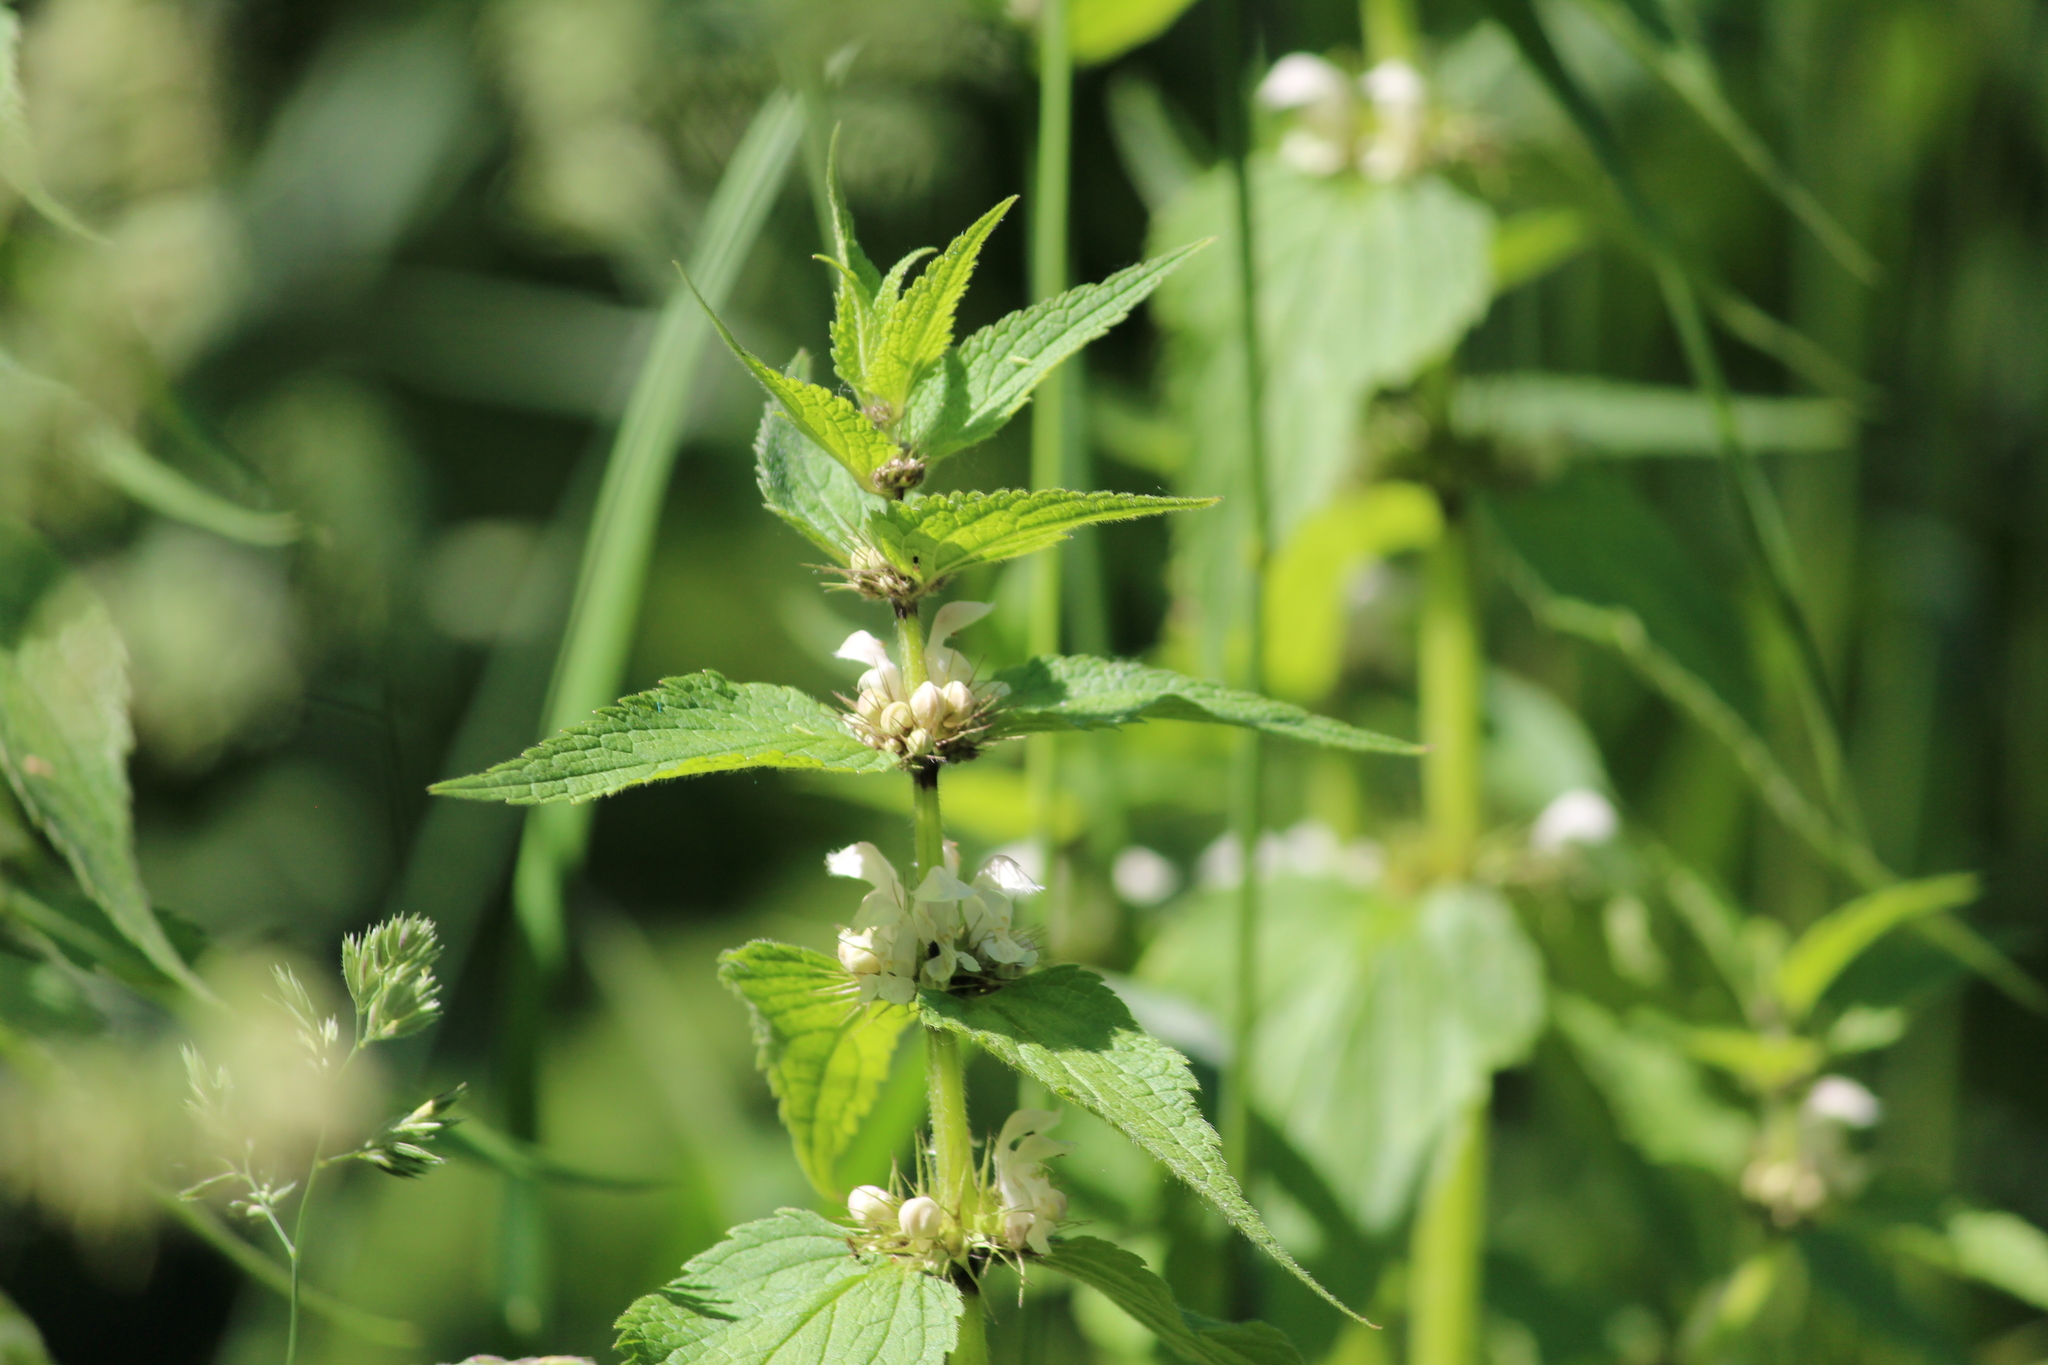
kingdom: Plantae
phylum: Tracheophyta
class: Magnoliopsida
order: Lamiales
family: Lamiaceae
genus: Lamium
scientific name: Lamium album
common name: White dead-nettle
